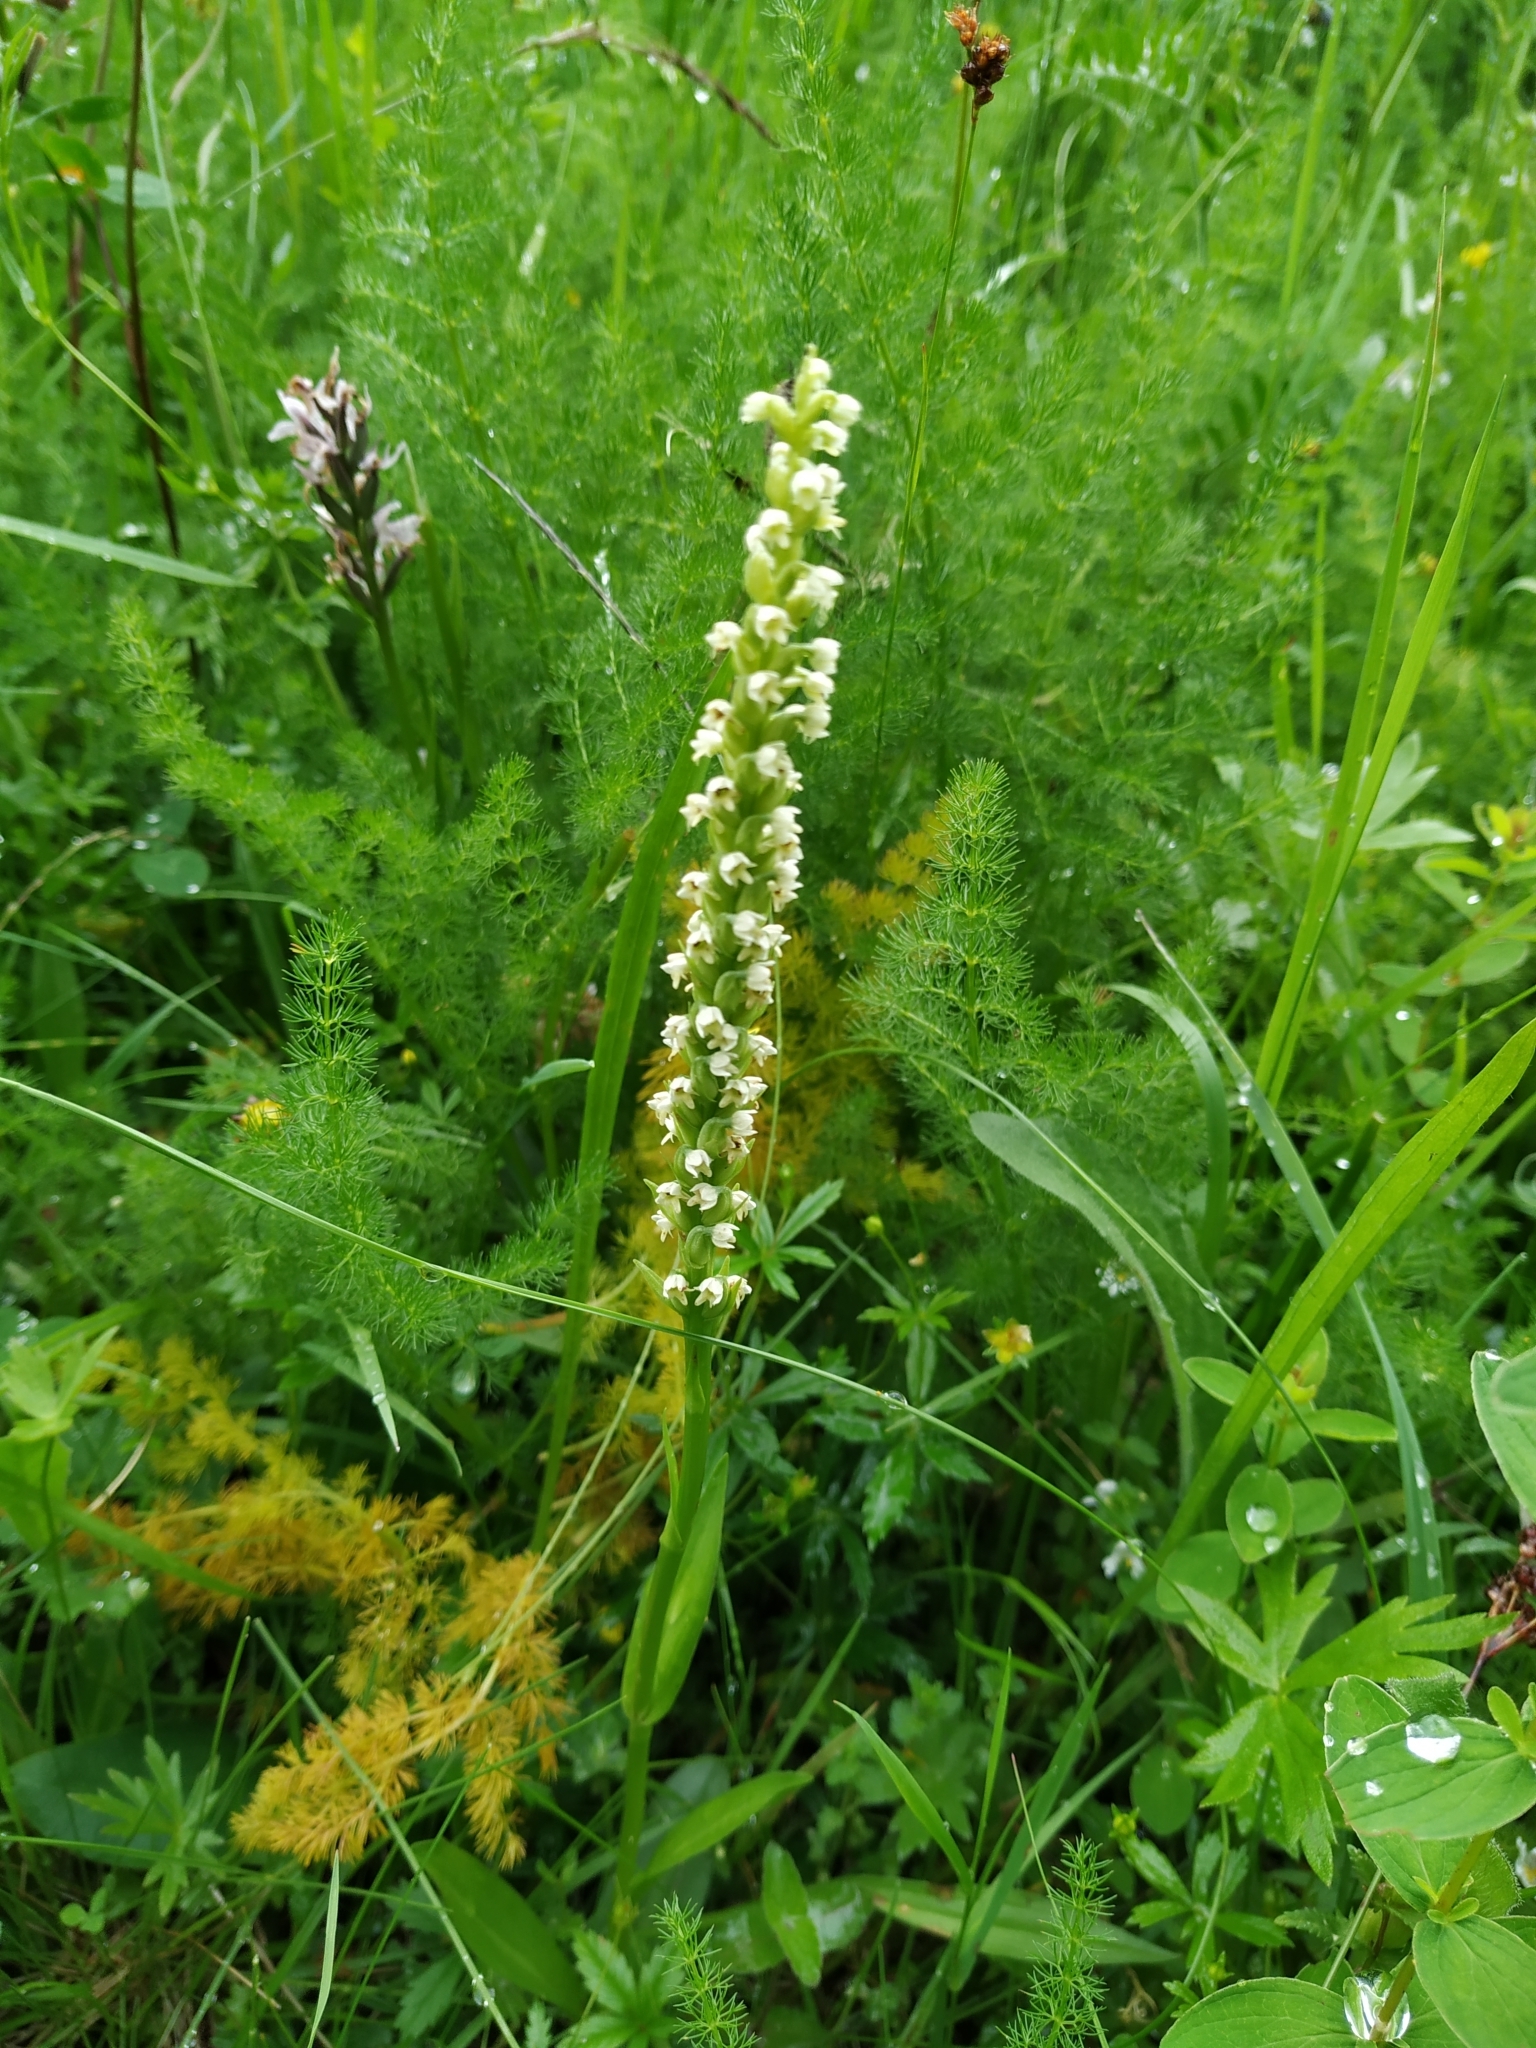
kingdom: Plantae
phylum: Tracheophyta
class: Liliopsida
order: Asparagales
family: Orchidaceae
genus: Pseudorchis
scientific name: Pseudorchis albida
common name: Small-white orchid
